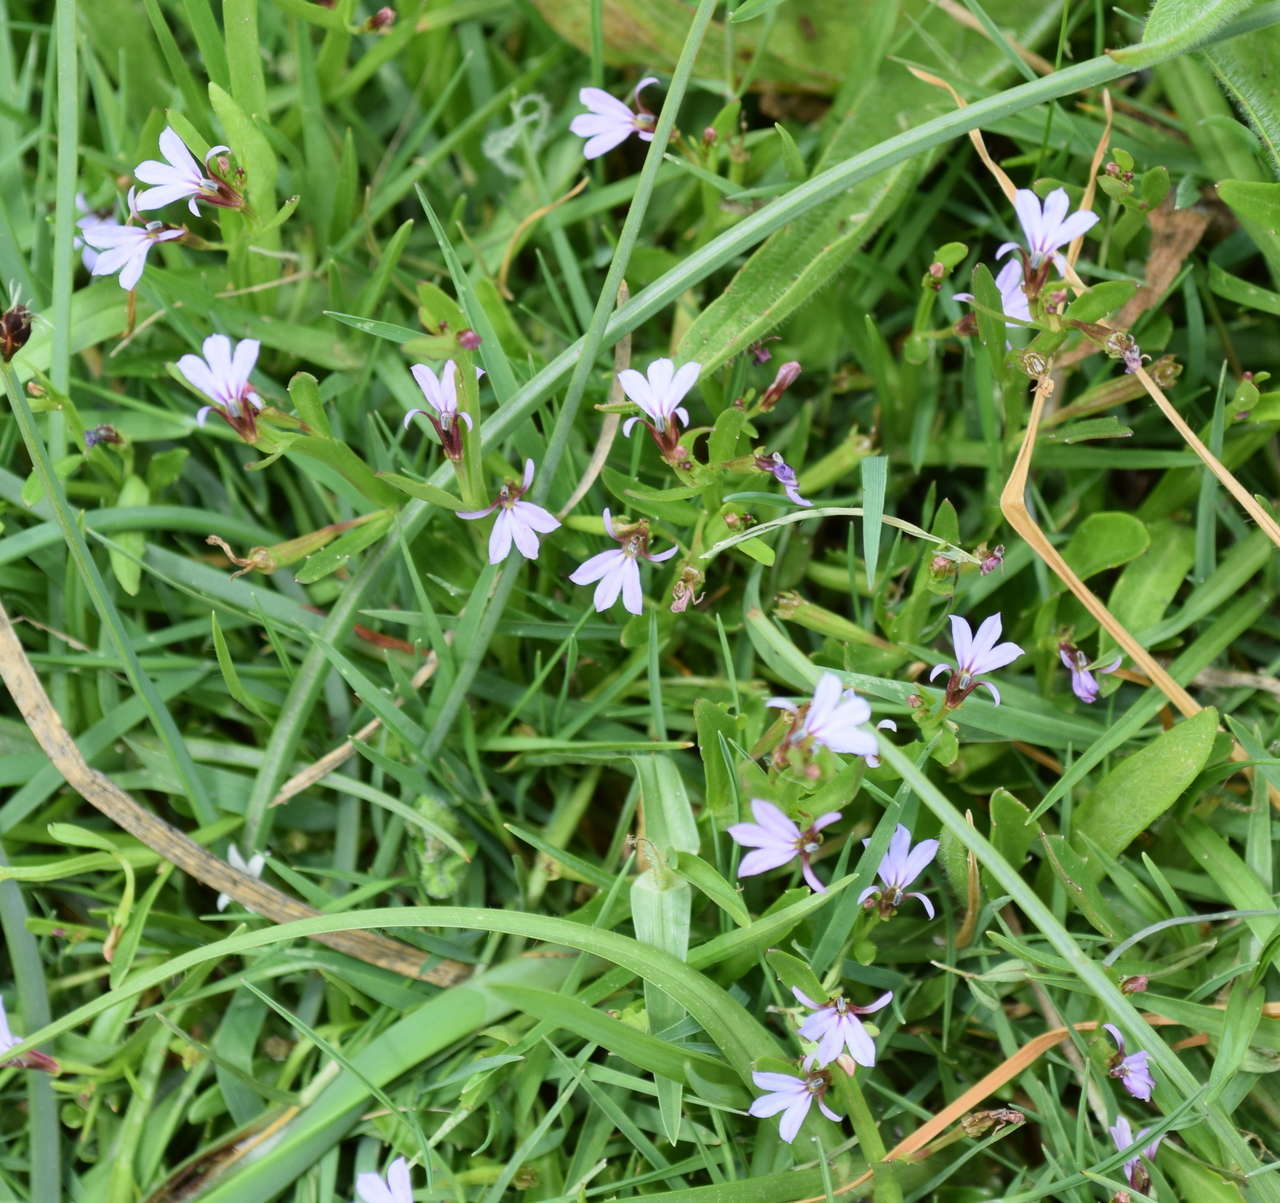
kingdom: Plantae
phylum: Tracheophyta
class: Magnoliopsida
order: Asterales
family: Campanulaceae
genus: Lobelia
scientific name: Lobelia anceps
